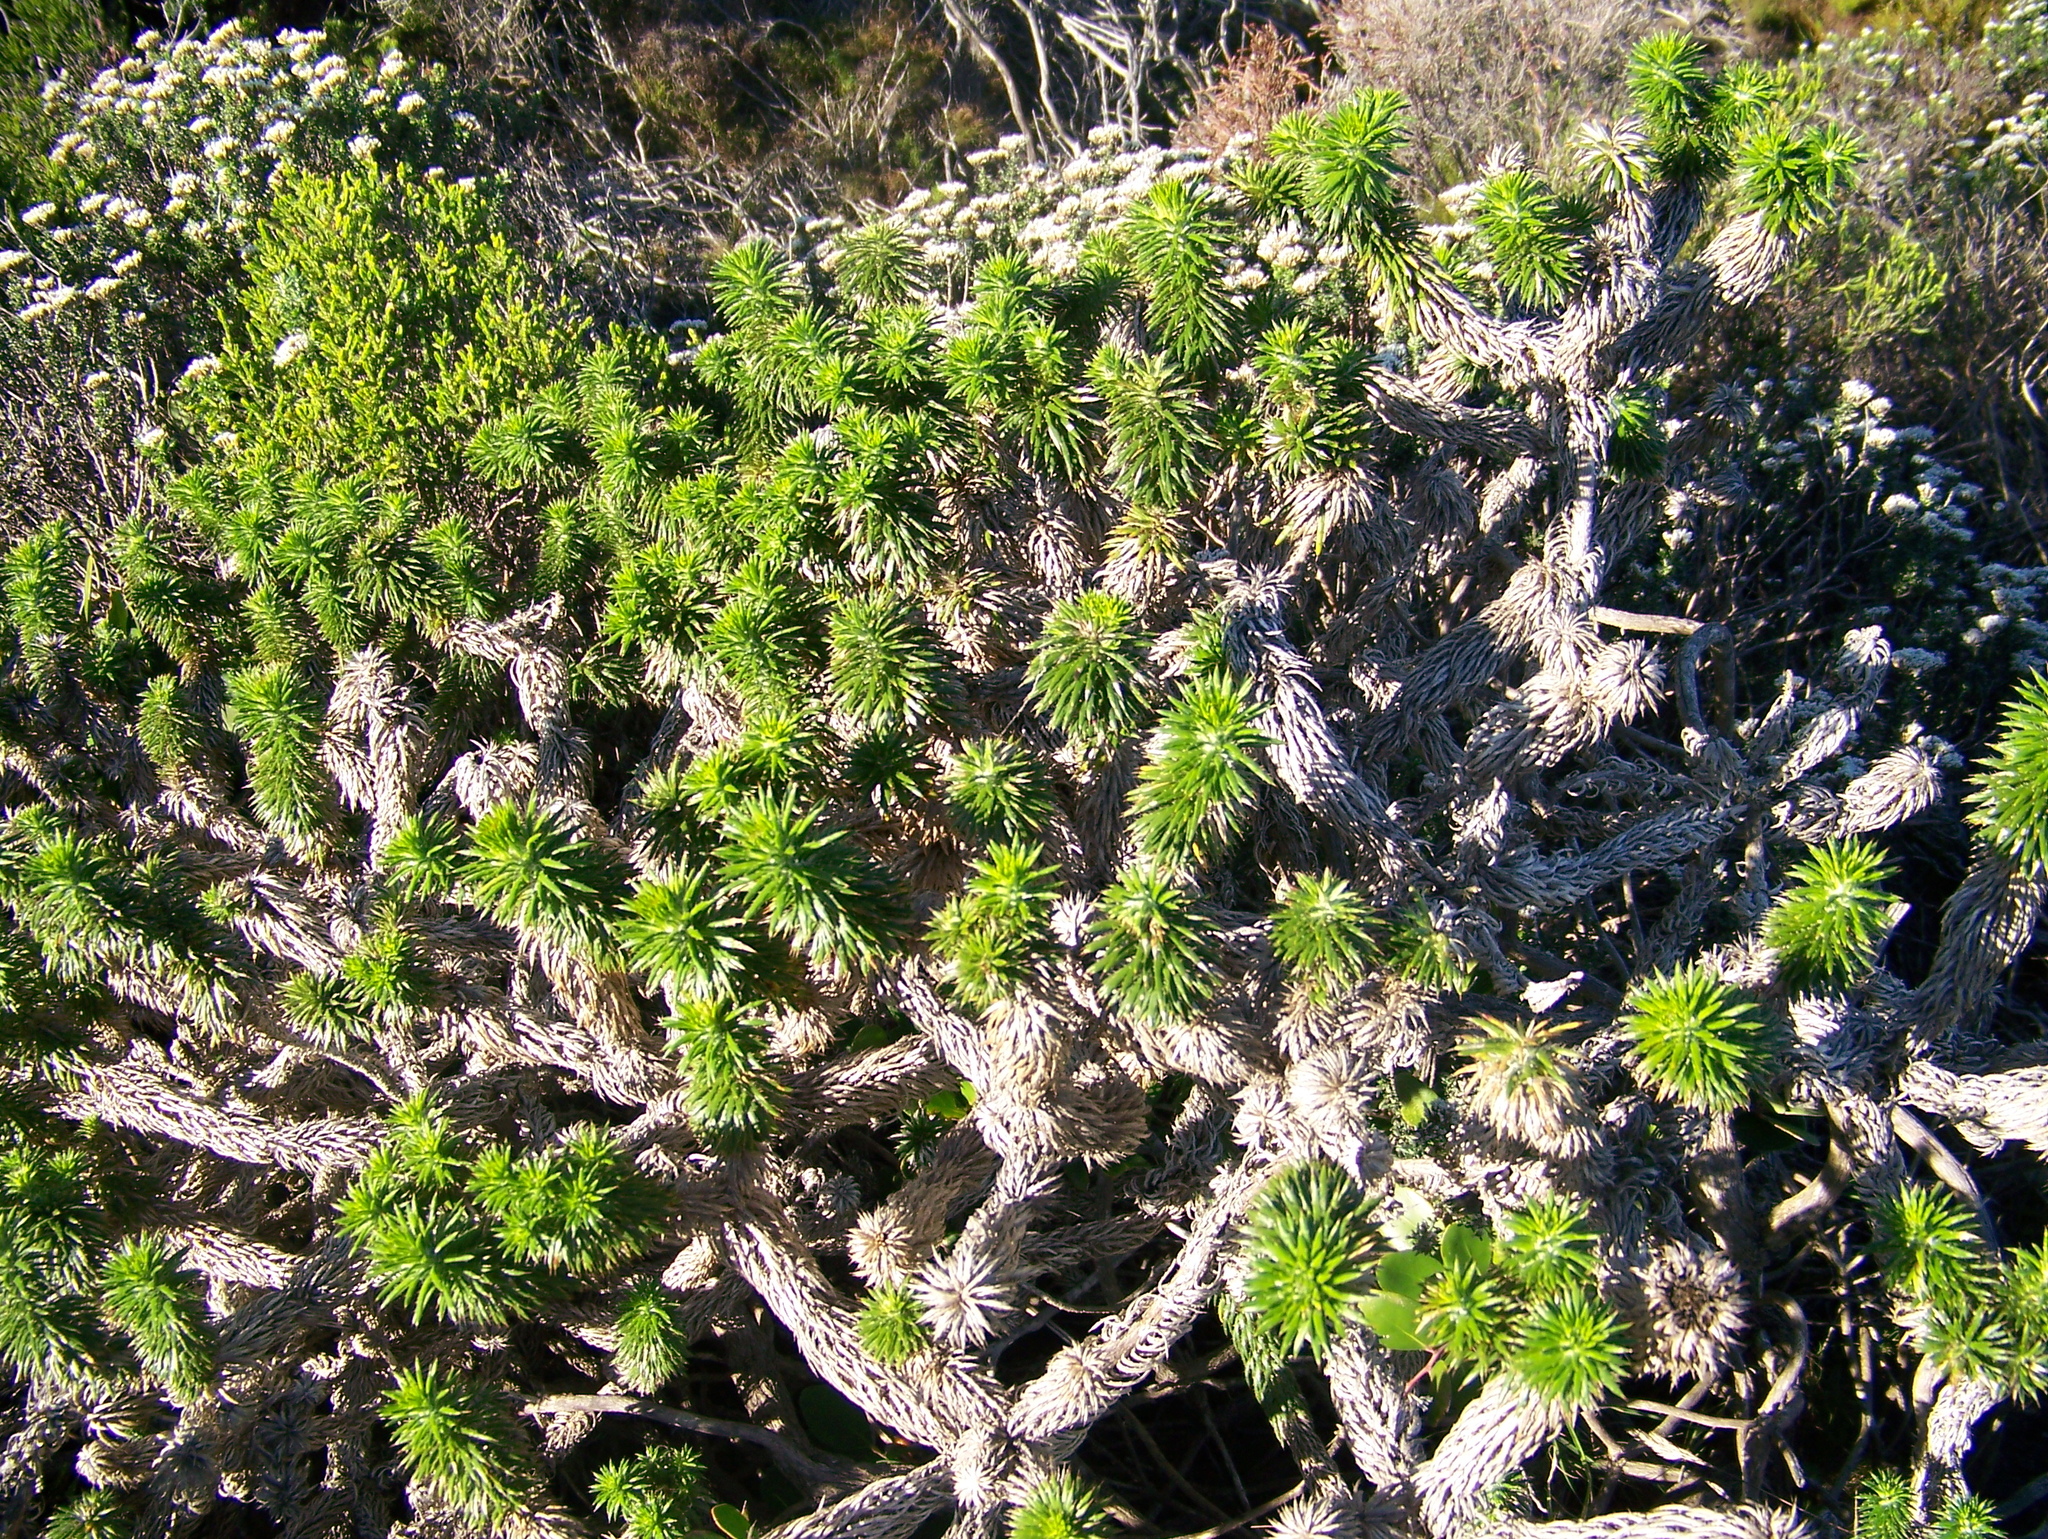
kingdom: Plantae
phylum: Tracheophyta
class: Magnoliopsida
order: Asterales
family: Asteraceae
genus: Cullumia
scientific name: Cullumia squarrosa
